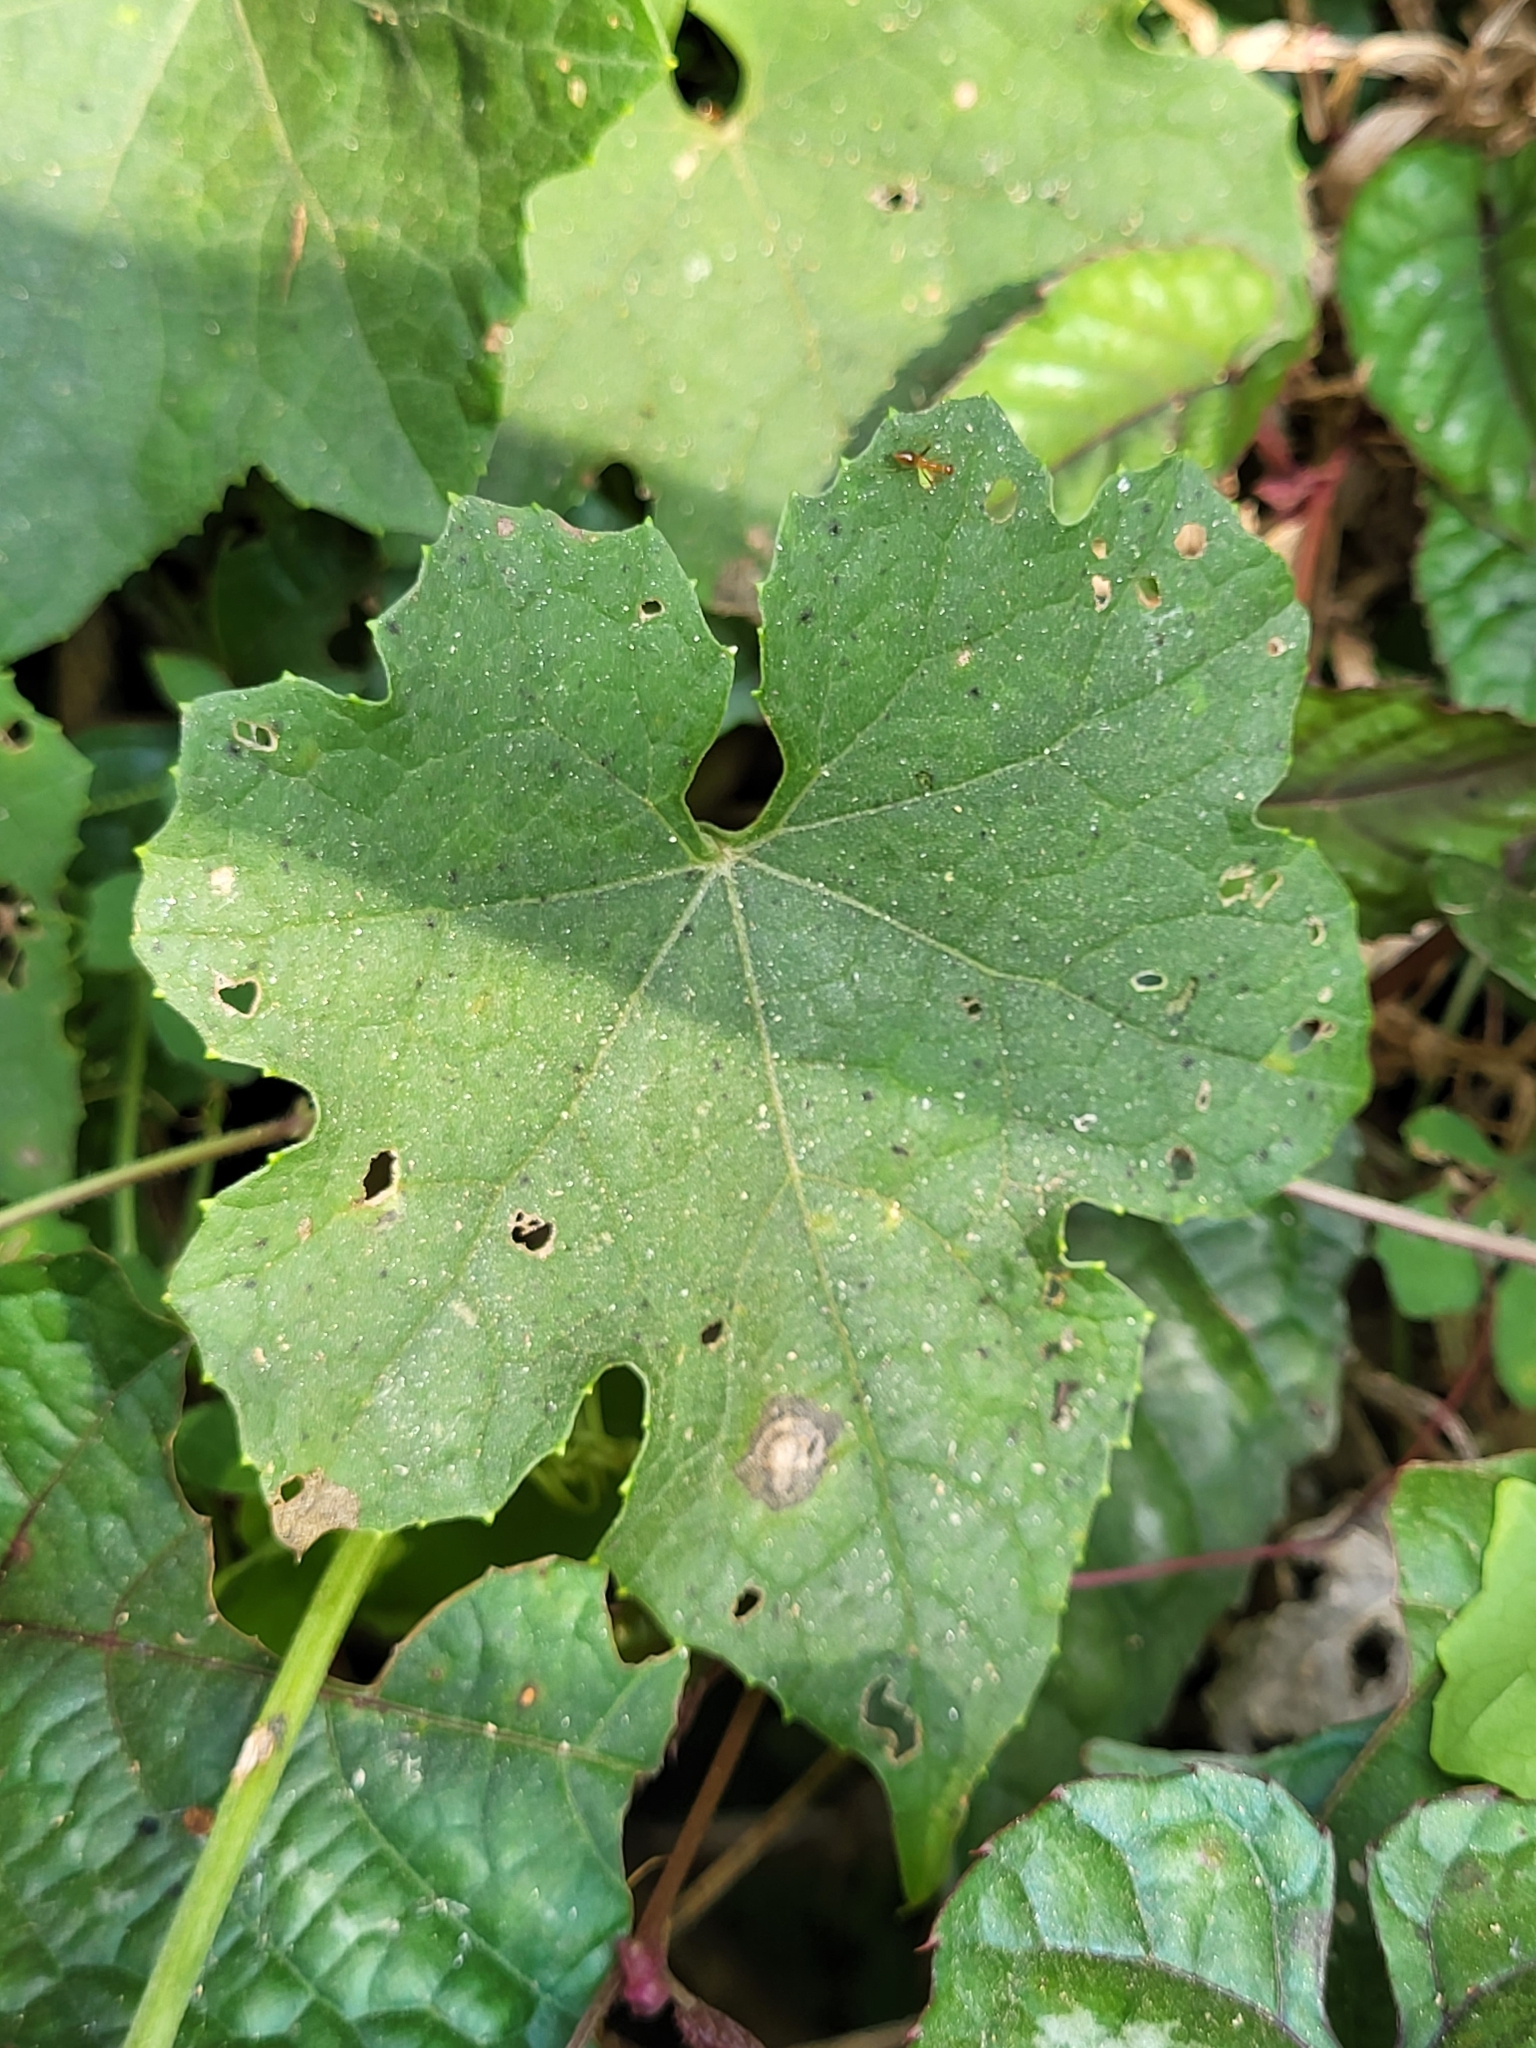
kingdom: Plantae
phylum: Tracheophyta
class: Magnoliopsida
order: Cucurbitales
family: Cucurbitaceae
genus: Luffa
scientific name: Luffa aegyptiaca
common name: Sponge gourd
